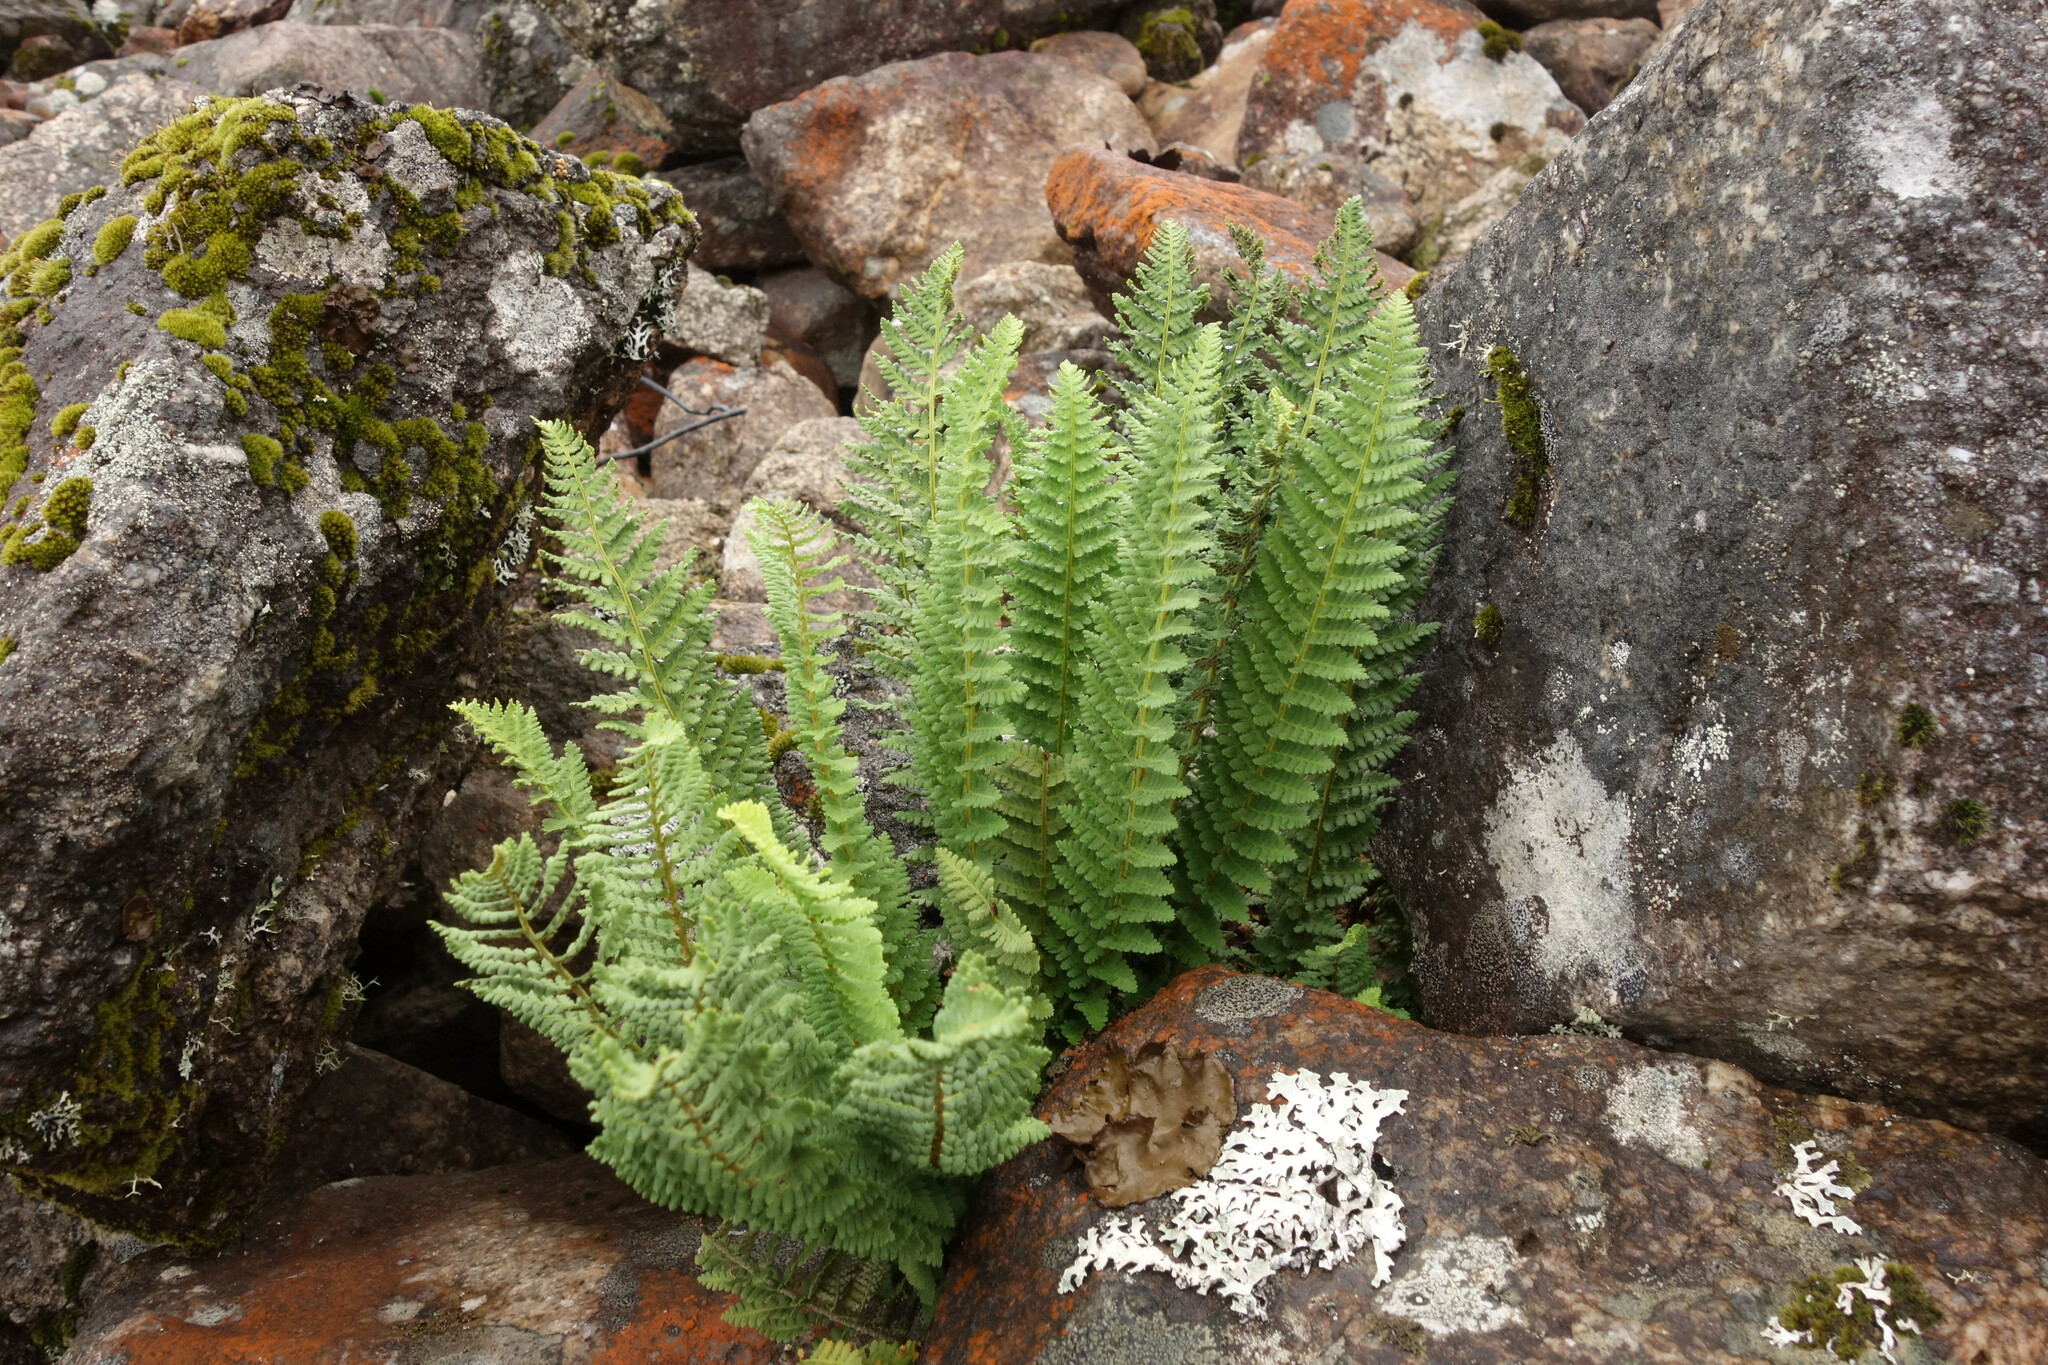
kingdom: Plantae
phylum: Tracheophyta
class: Polypodiopsida
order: Polypodiales
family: Dryopteridaceae
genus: Dryopteris
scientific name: Dryopteris fragrans
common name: Fragrant wood fern
